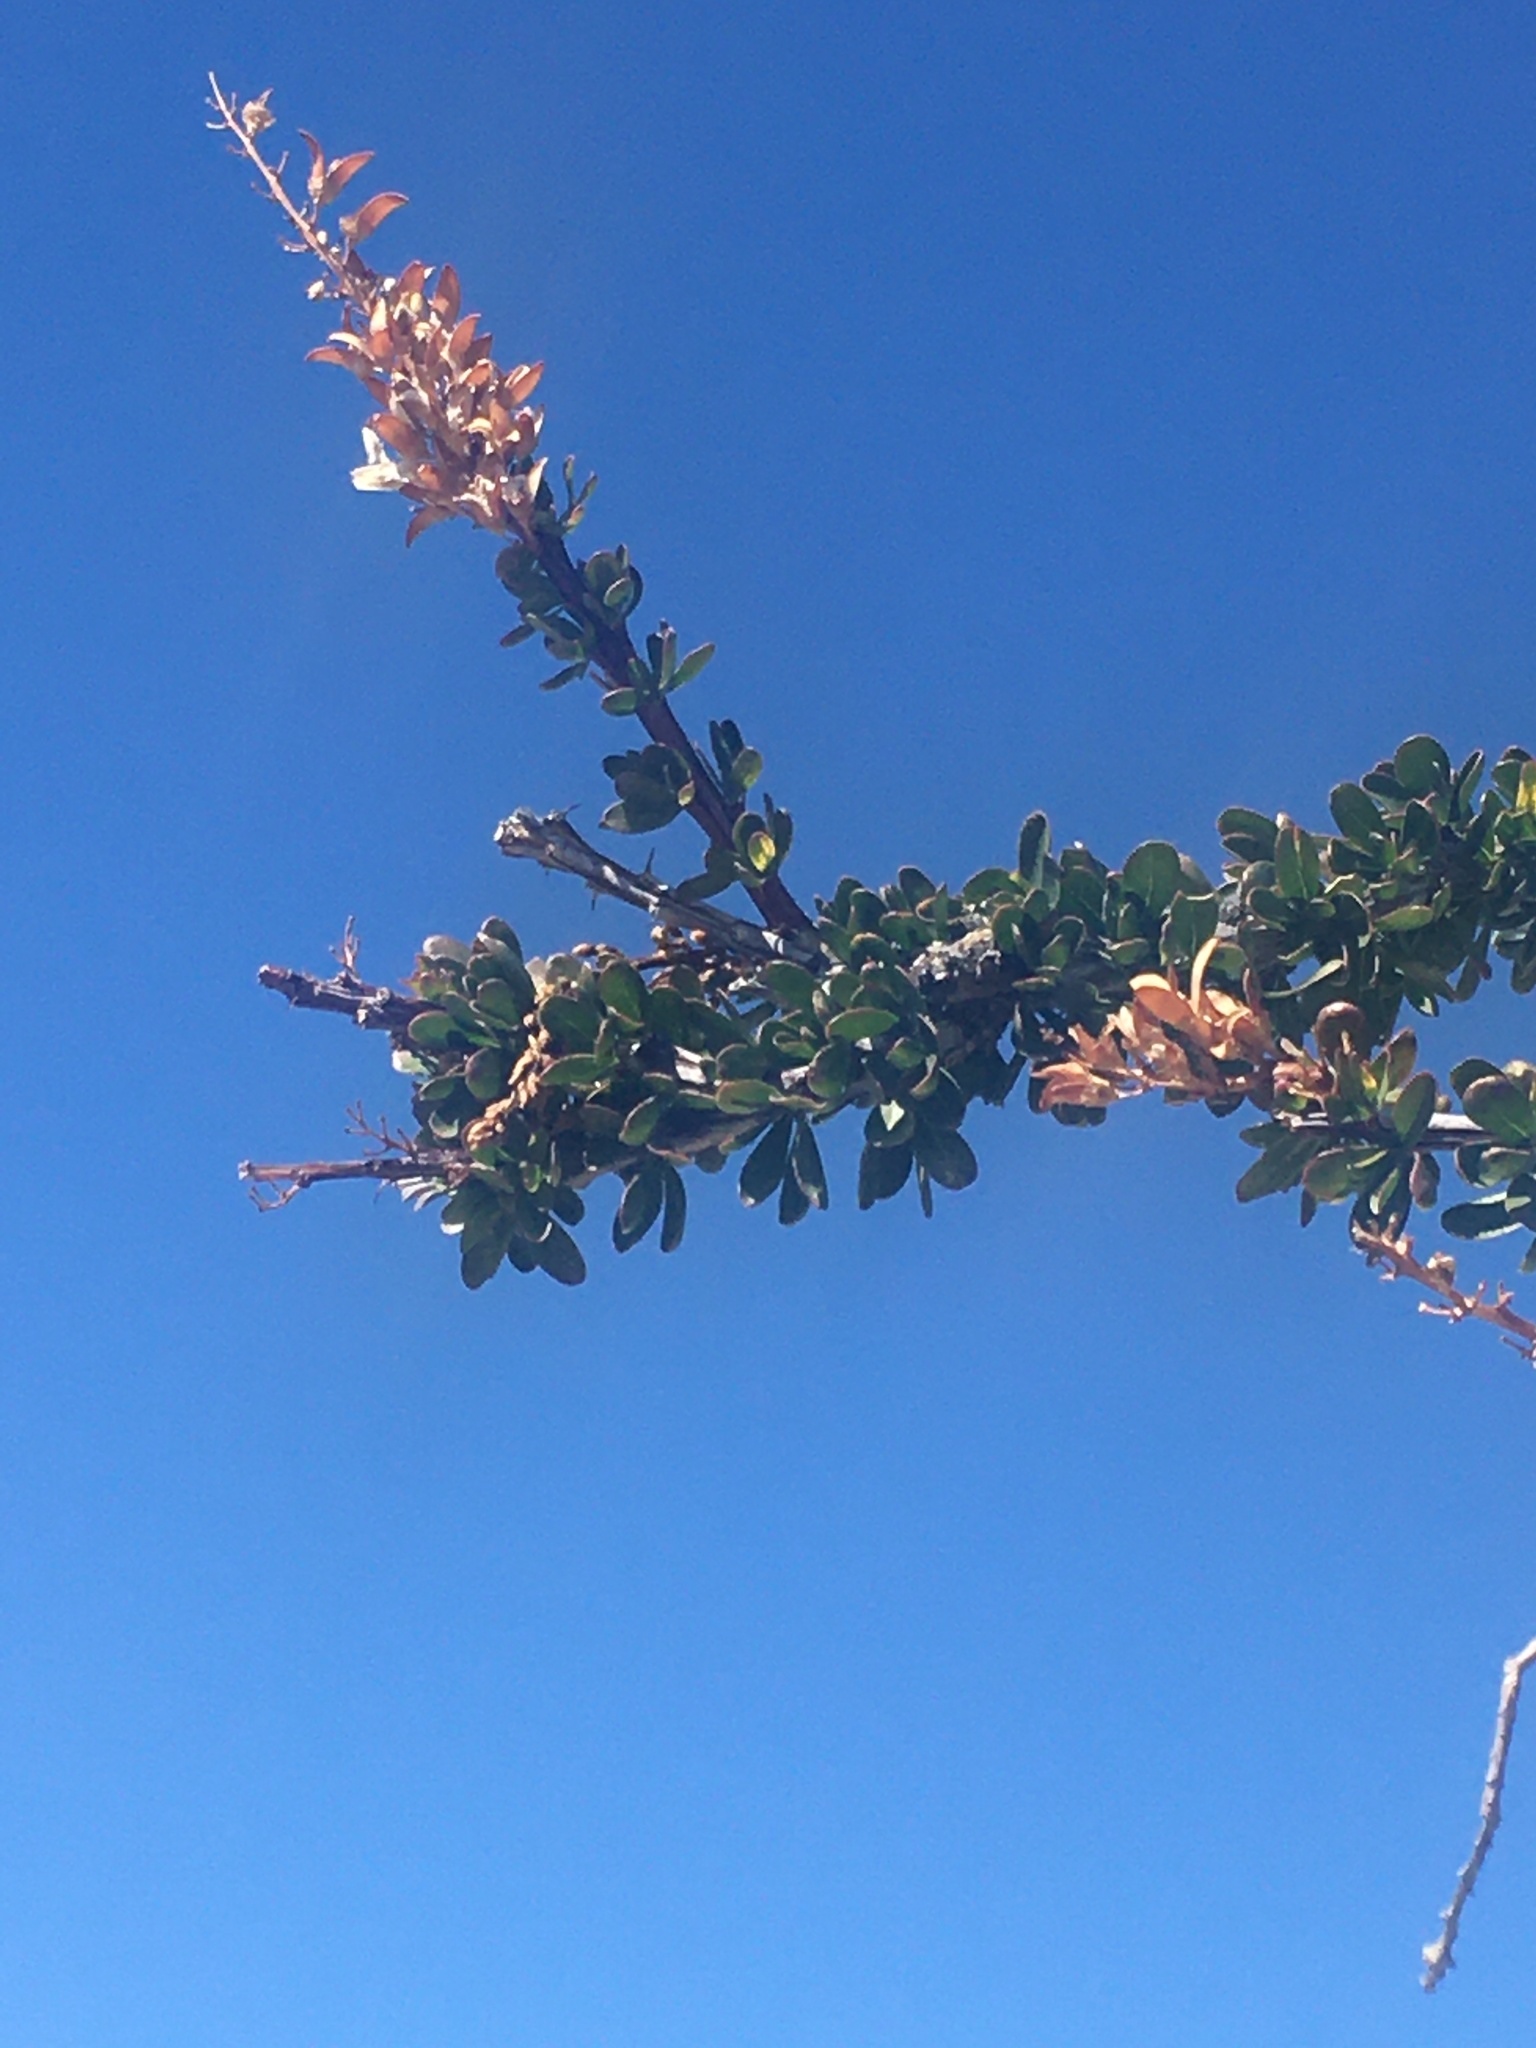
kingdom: Plantae
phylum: Tracheophyta
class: Magnoliopsida
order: Ericales
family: Fouquieriaceae
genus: Fouquieria
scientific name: Fouquieria splendens
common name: Vine-cactus
